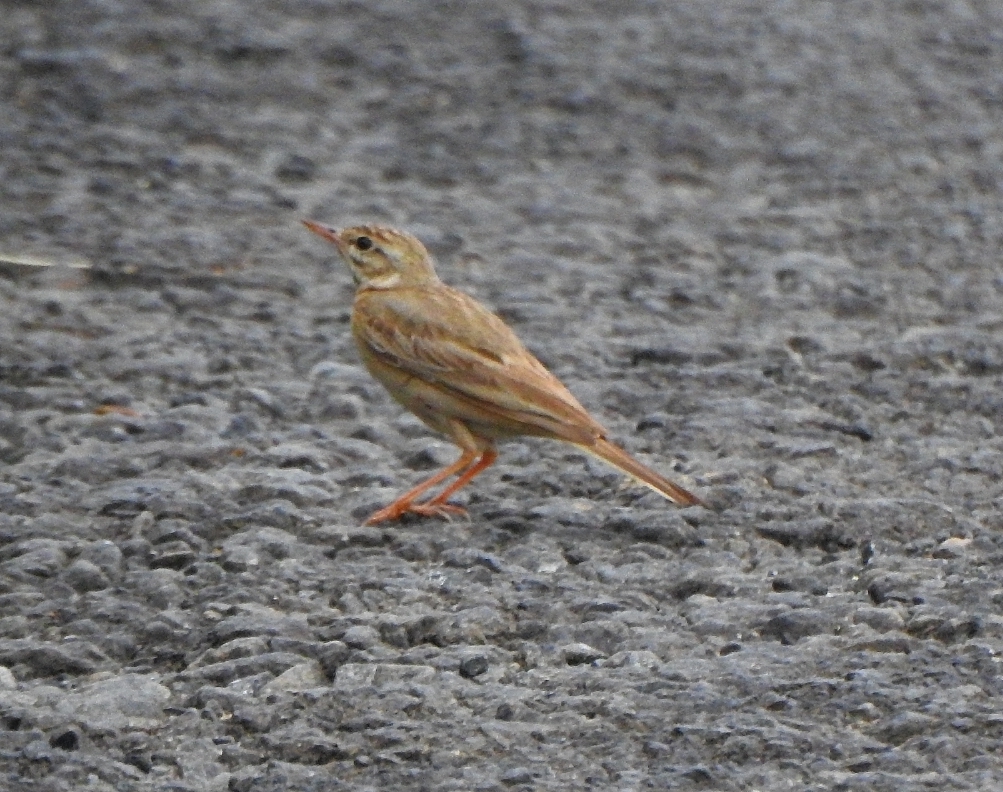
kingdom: Animalia
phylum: Chordata
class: Aves
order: Passeriformes
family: Motacillidae
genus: Anthus
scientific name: Anthus campestris
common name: Tawny pipit
